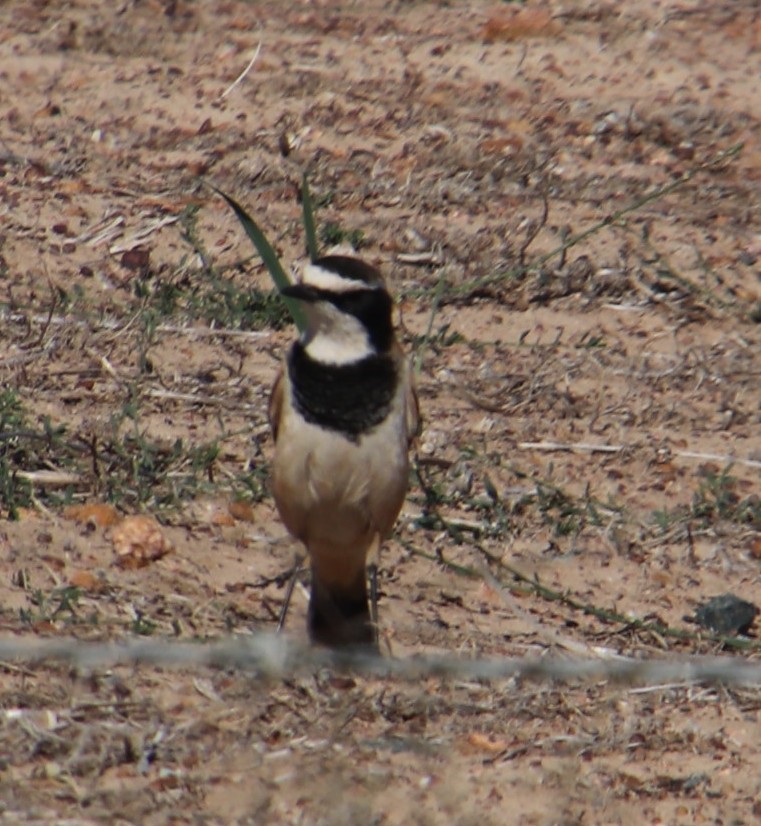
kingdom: Animalia
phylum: Chordata
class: Aves
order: Passeriformes
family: Muscicapidae
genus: Oenanthe
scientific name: Oenanthe pileata
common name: Capped wheatear
